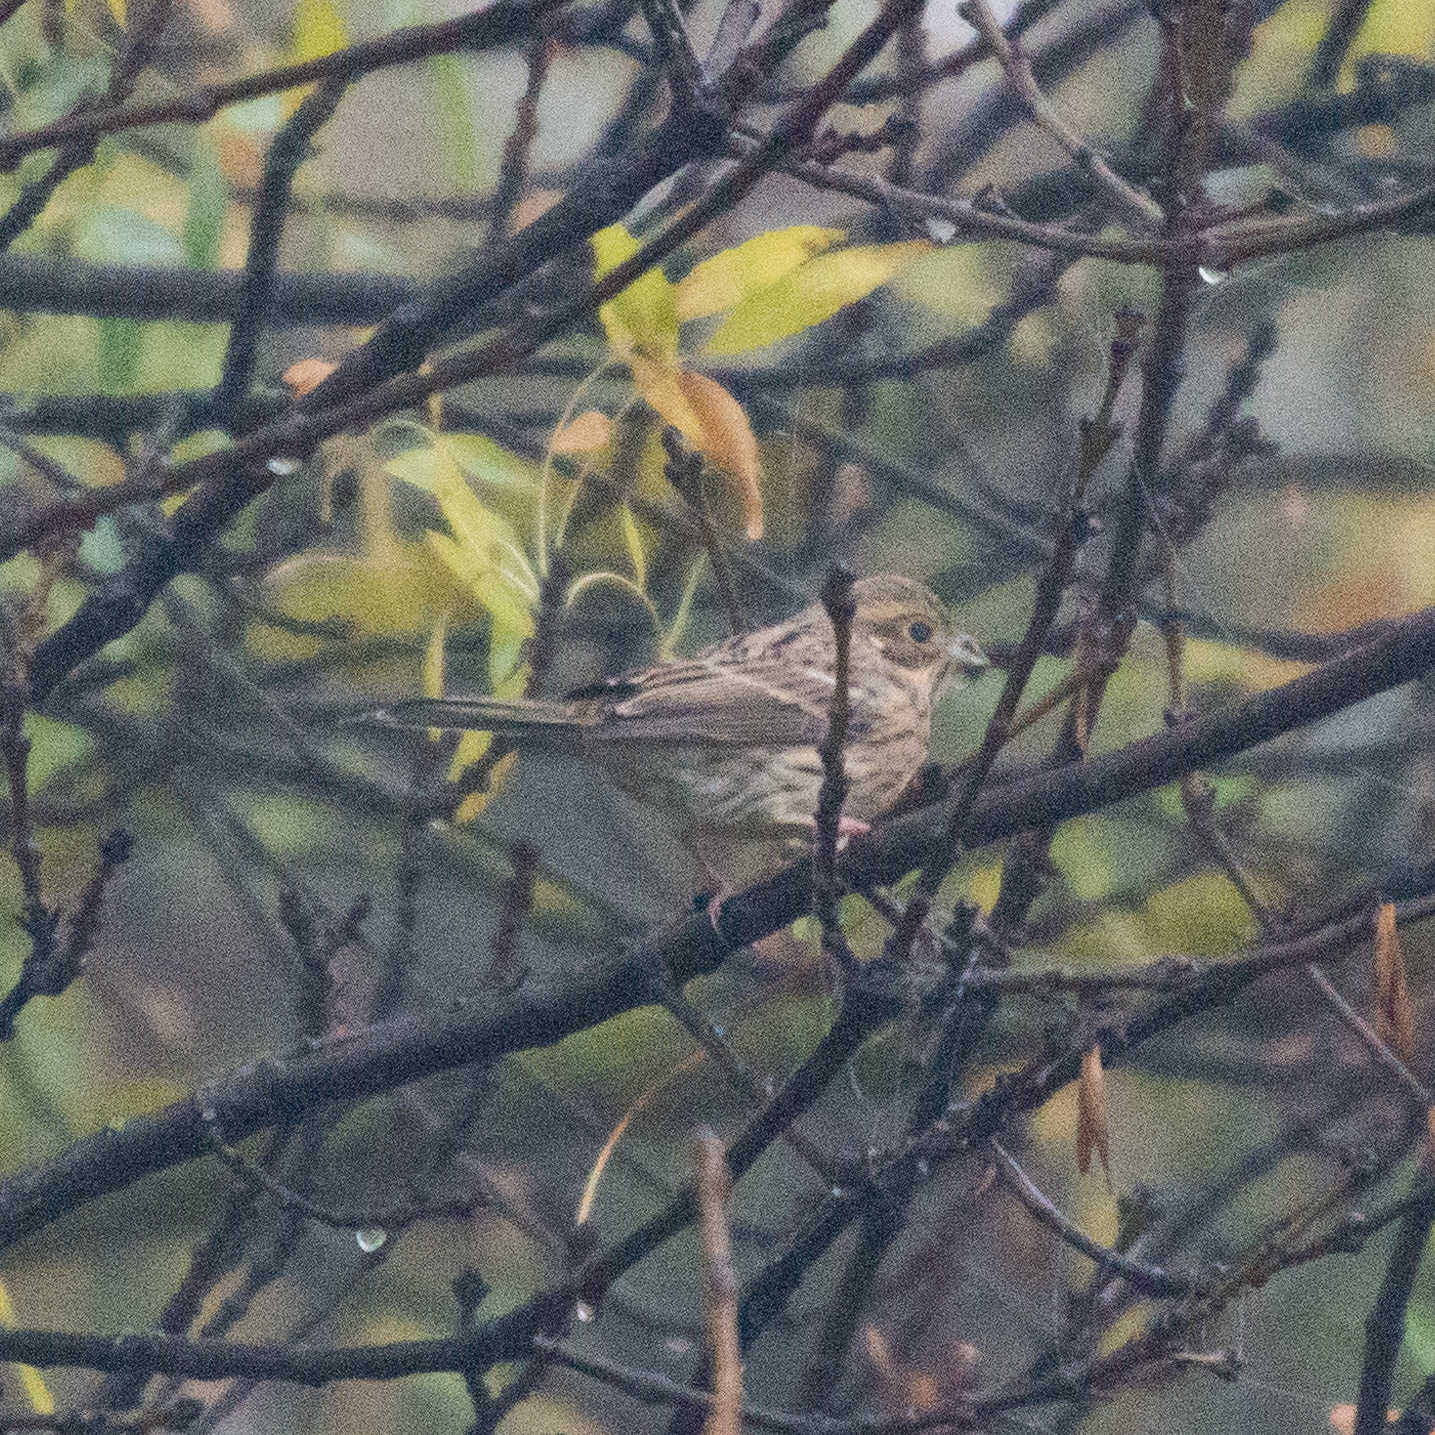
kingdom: Animalia
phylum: Chordata
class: Aves
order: Passeriformes
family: Emberizidae
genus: Emberiza
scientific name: Emberiza cirlus
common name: Cirl bunting
